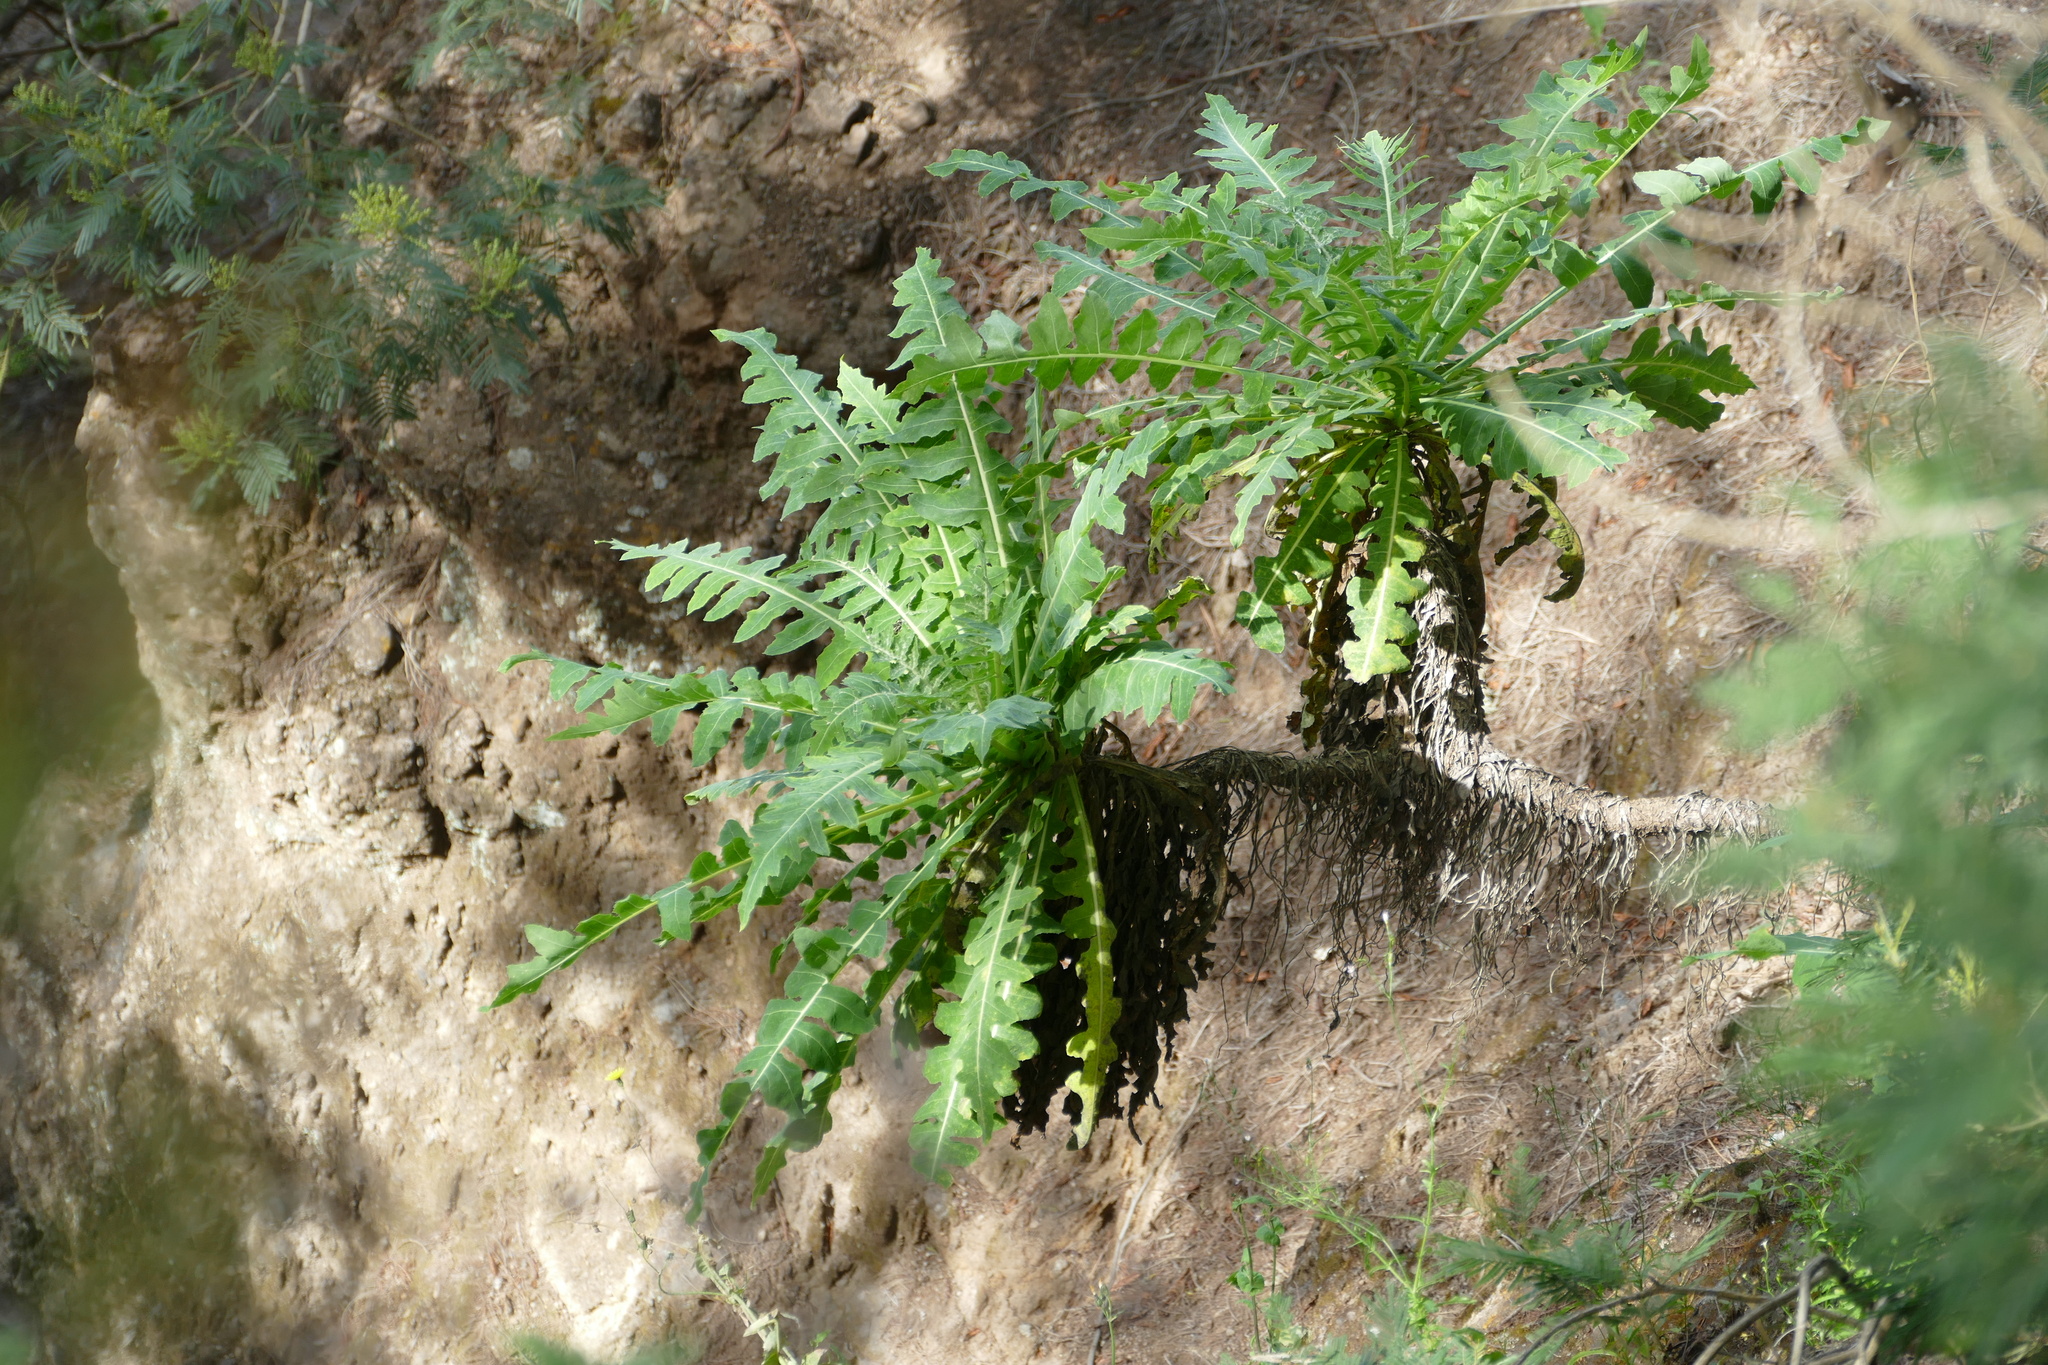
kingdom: Plantae
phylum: Tracheophyta
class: Magnoliopsida
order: Asterales
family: Asteraceae
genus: Sonchus
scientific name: Sonchus daltonii
